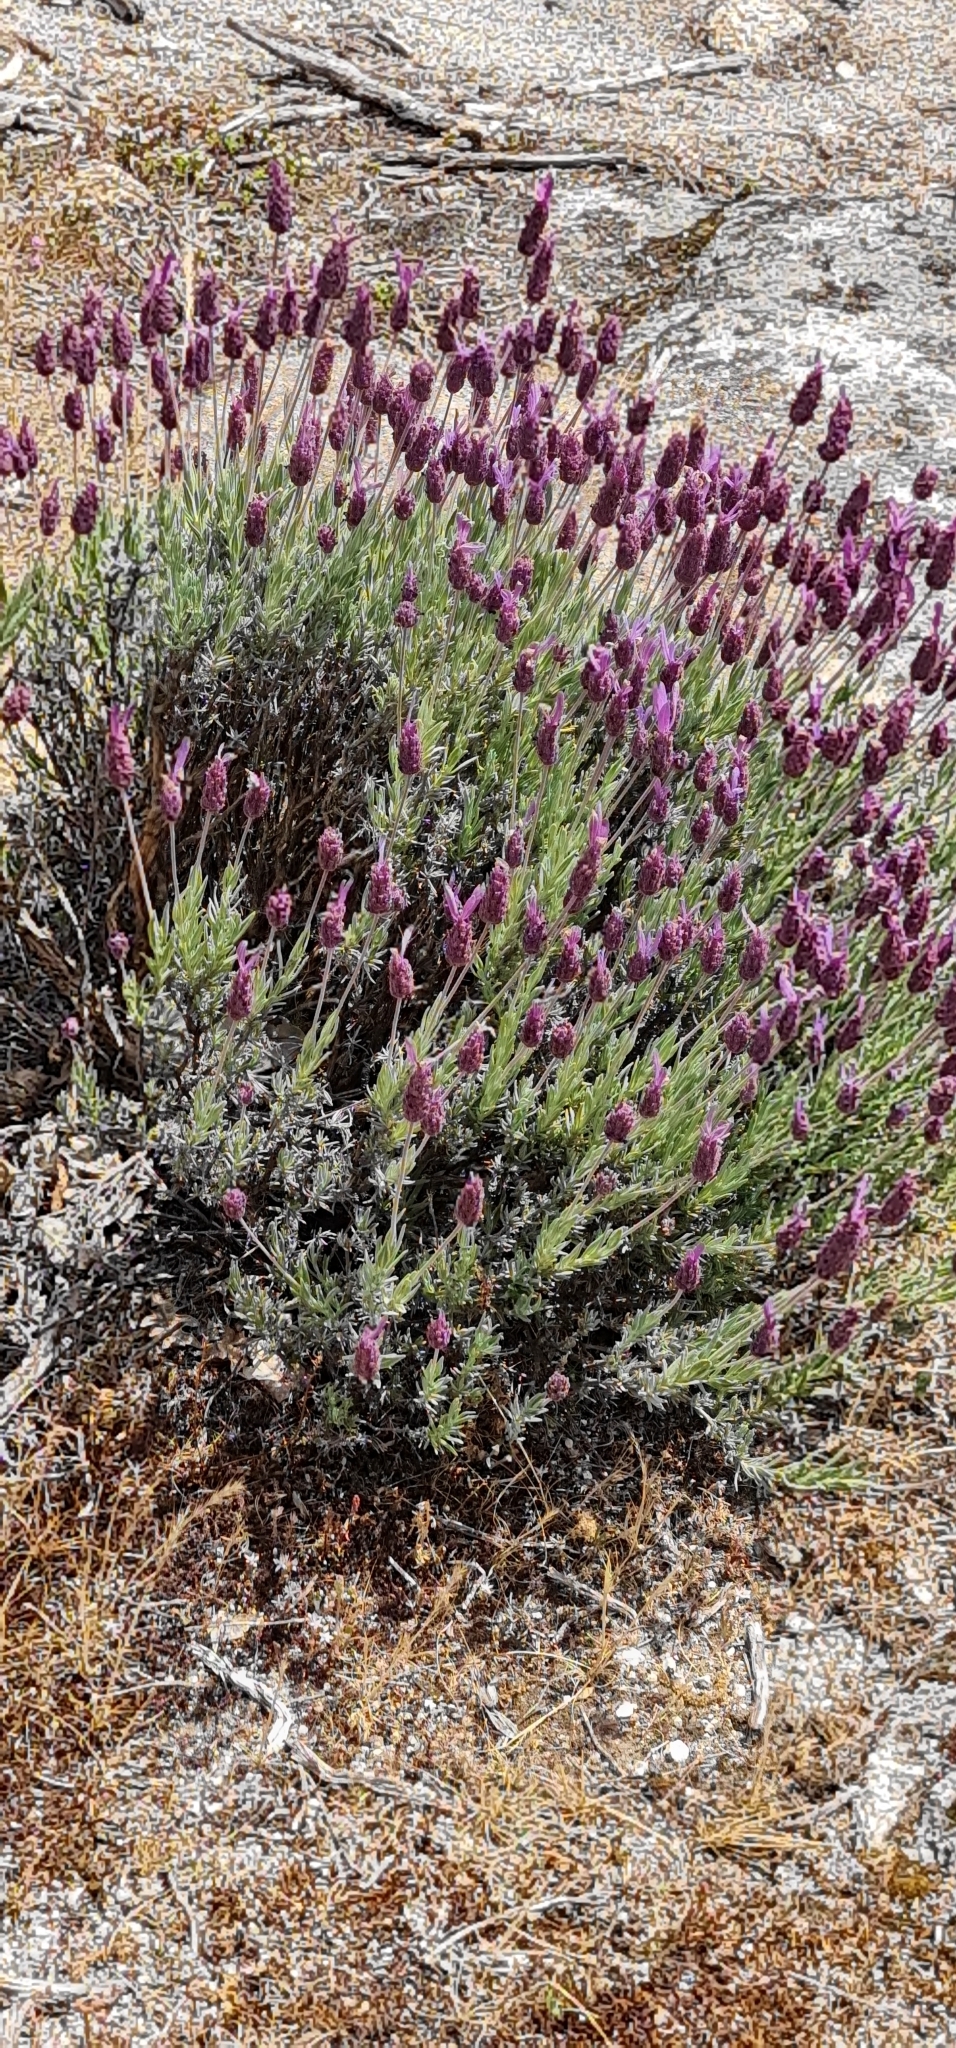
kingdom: Plantae
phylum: Tracheophyta
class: Magnoliopsida
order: Lamiales
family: Lamiaceae
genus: Lavandula
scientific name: Lavandula pedunculata
